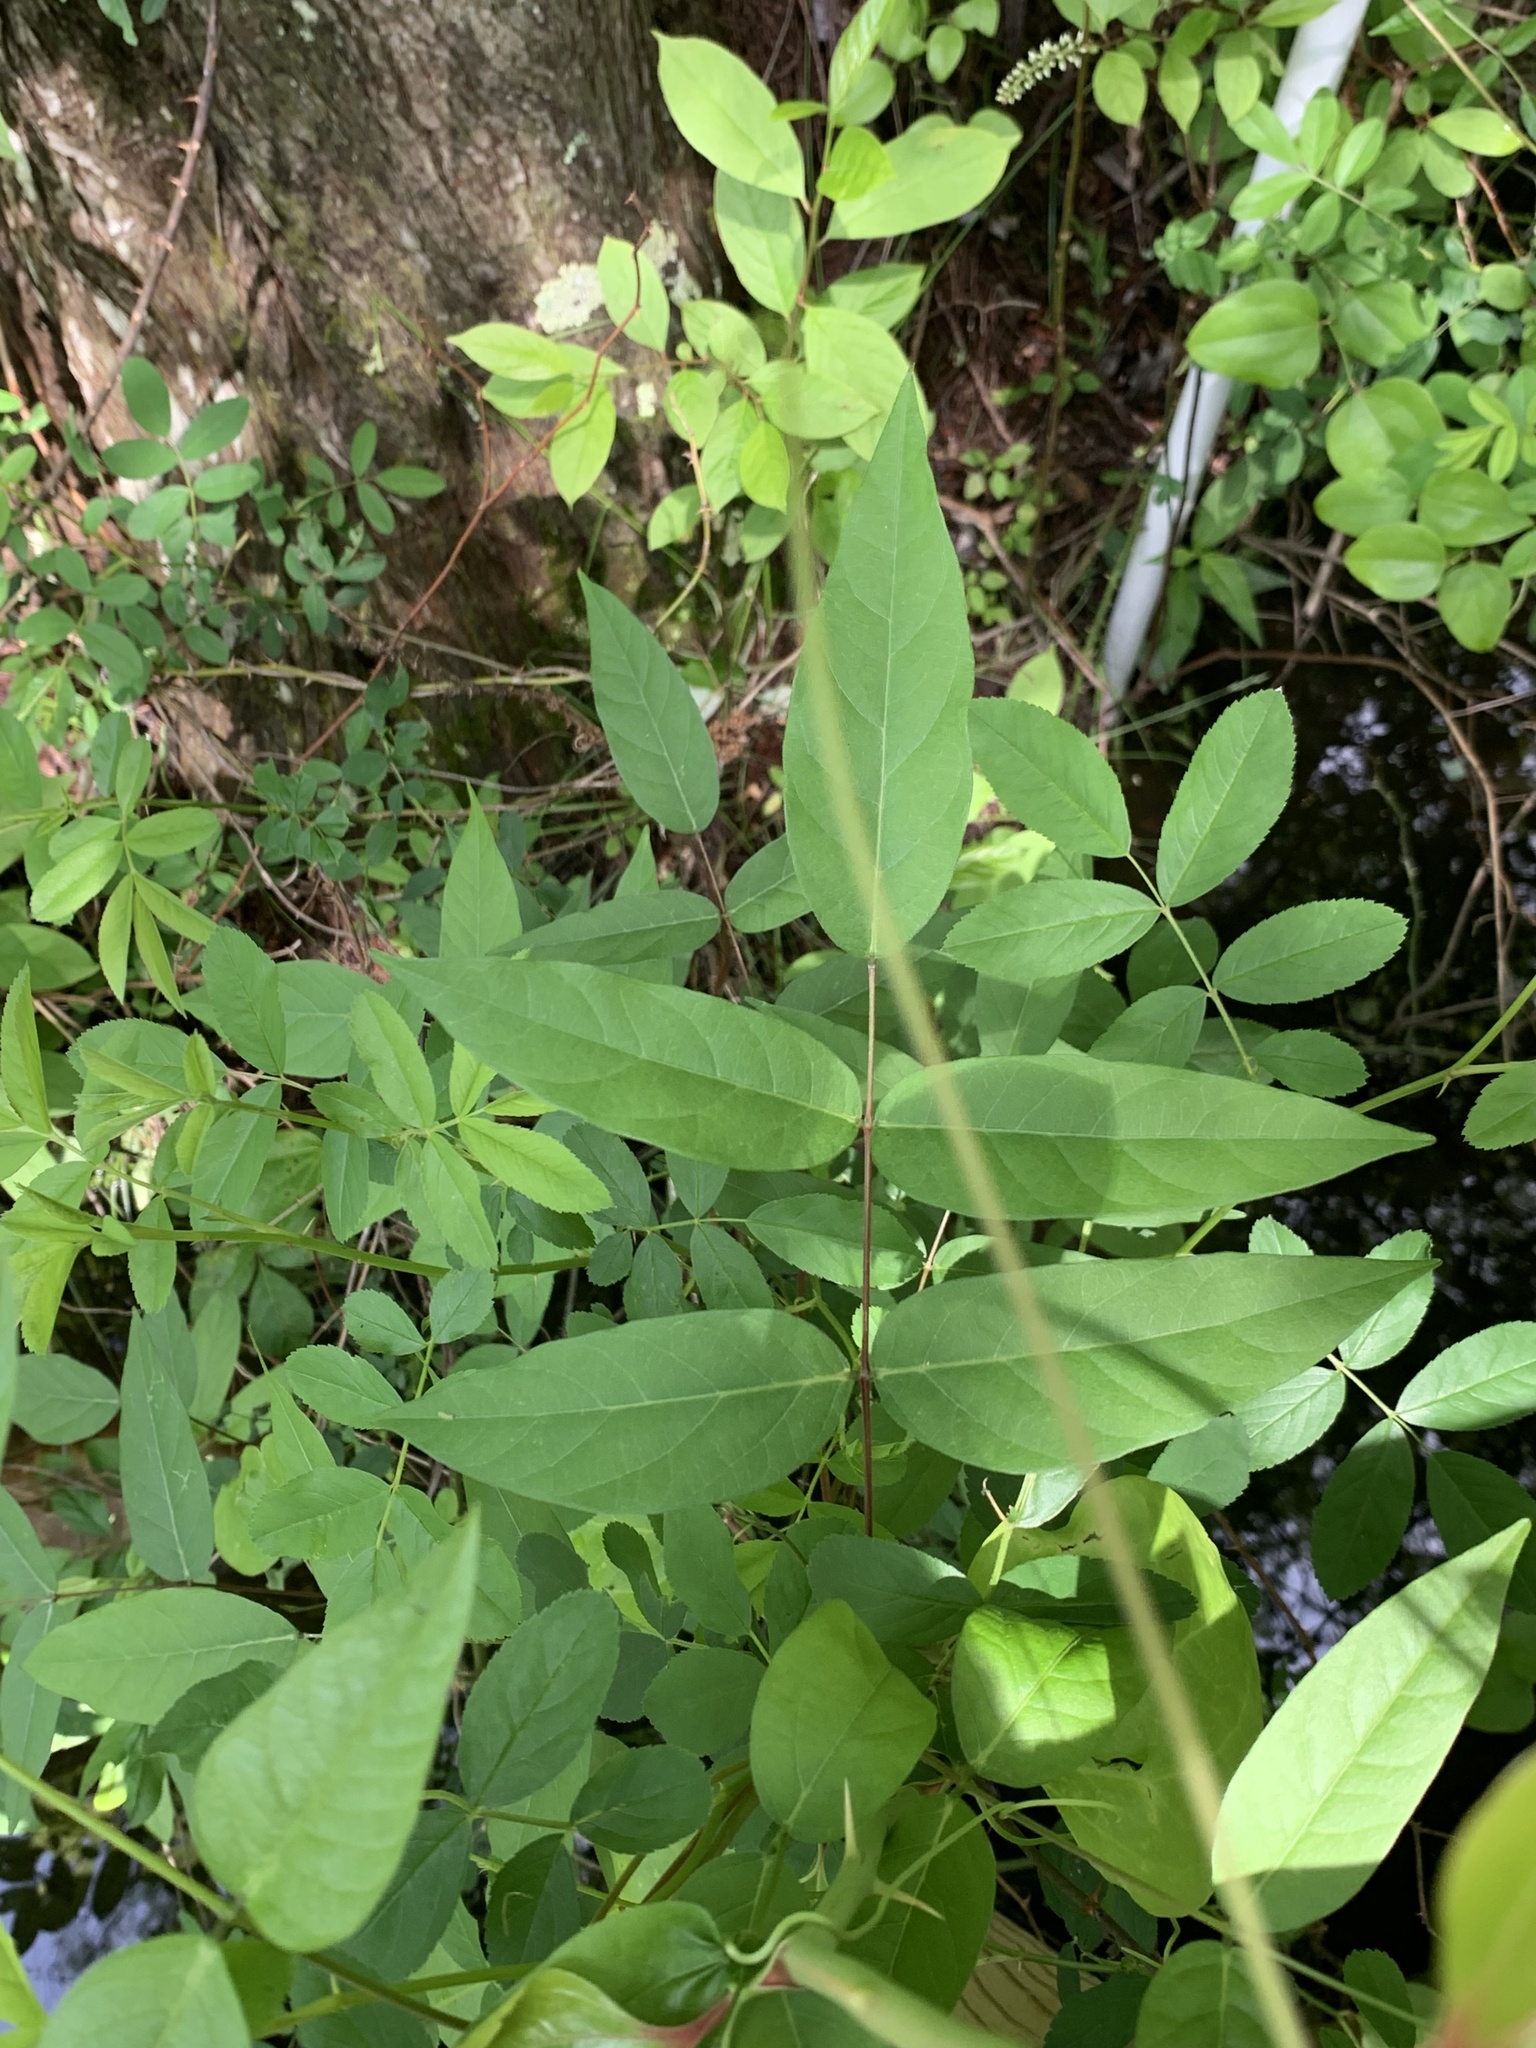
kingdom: Plantae
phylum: Tracheophyta
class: Magnoliopsida
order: Fabales
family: Fabaceae
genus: Apios
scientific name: Apios americana
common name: American potato-bean
